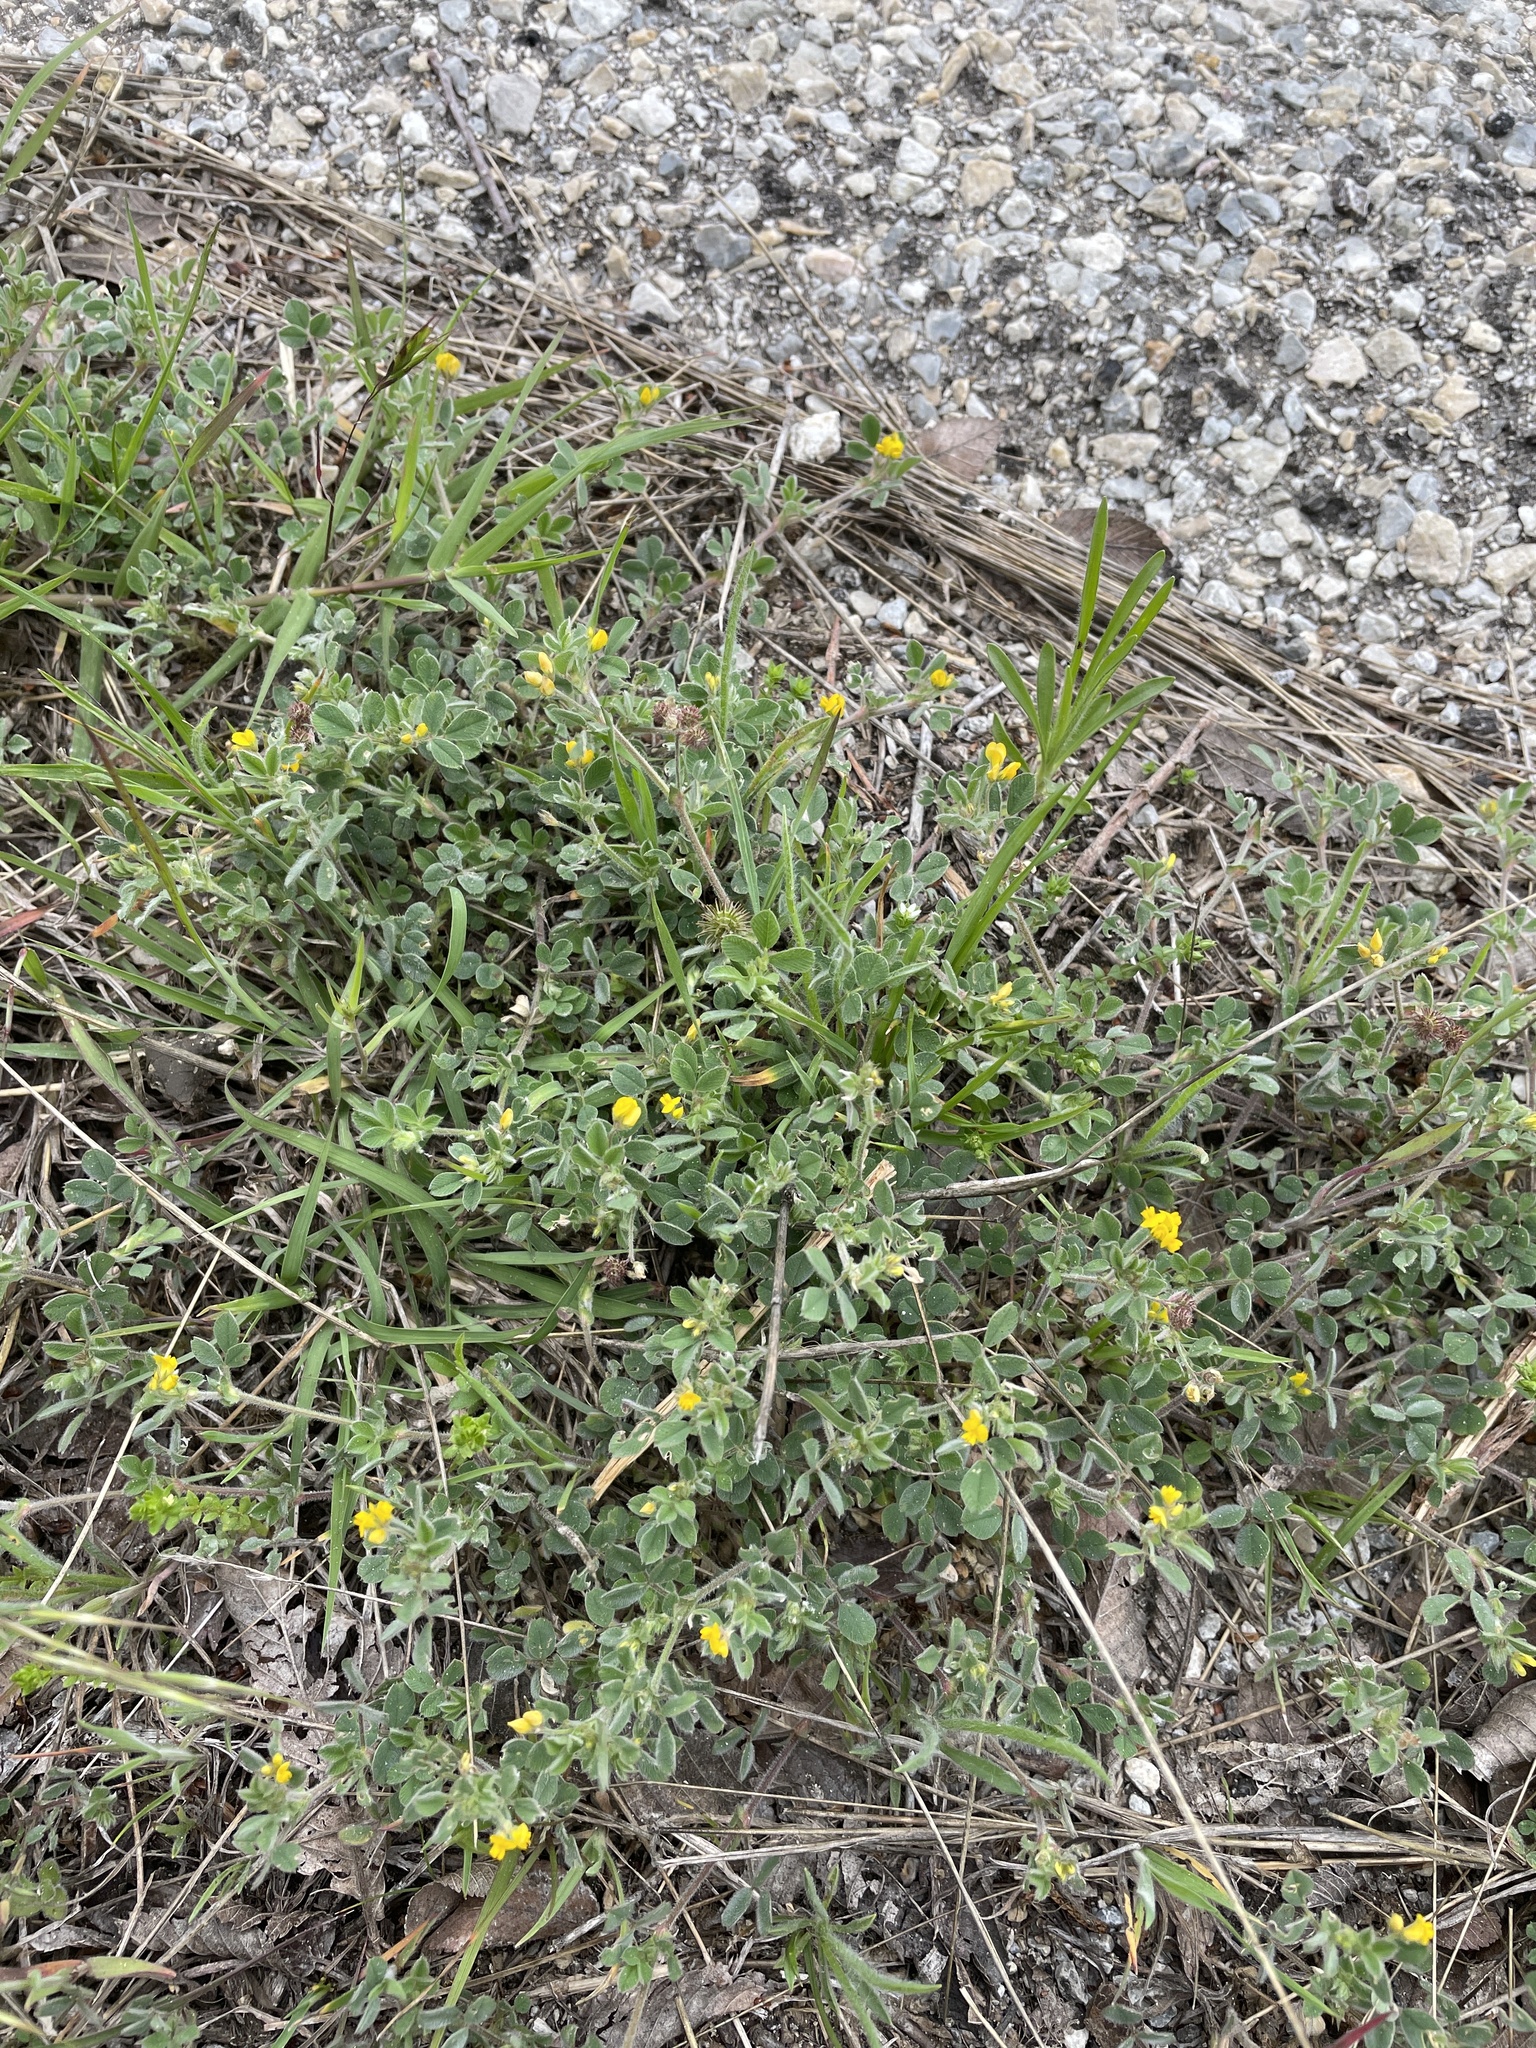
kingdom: Plantae
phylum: Tracheophyta
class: Magnoliopsida
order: Fabales
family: Fabaceae
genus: Medicago
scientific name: Medicago minima
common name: Little bur-clover
